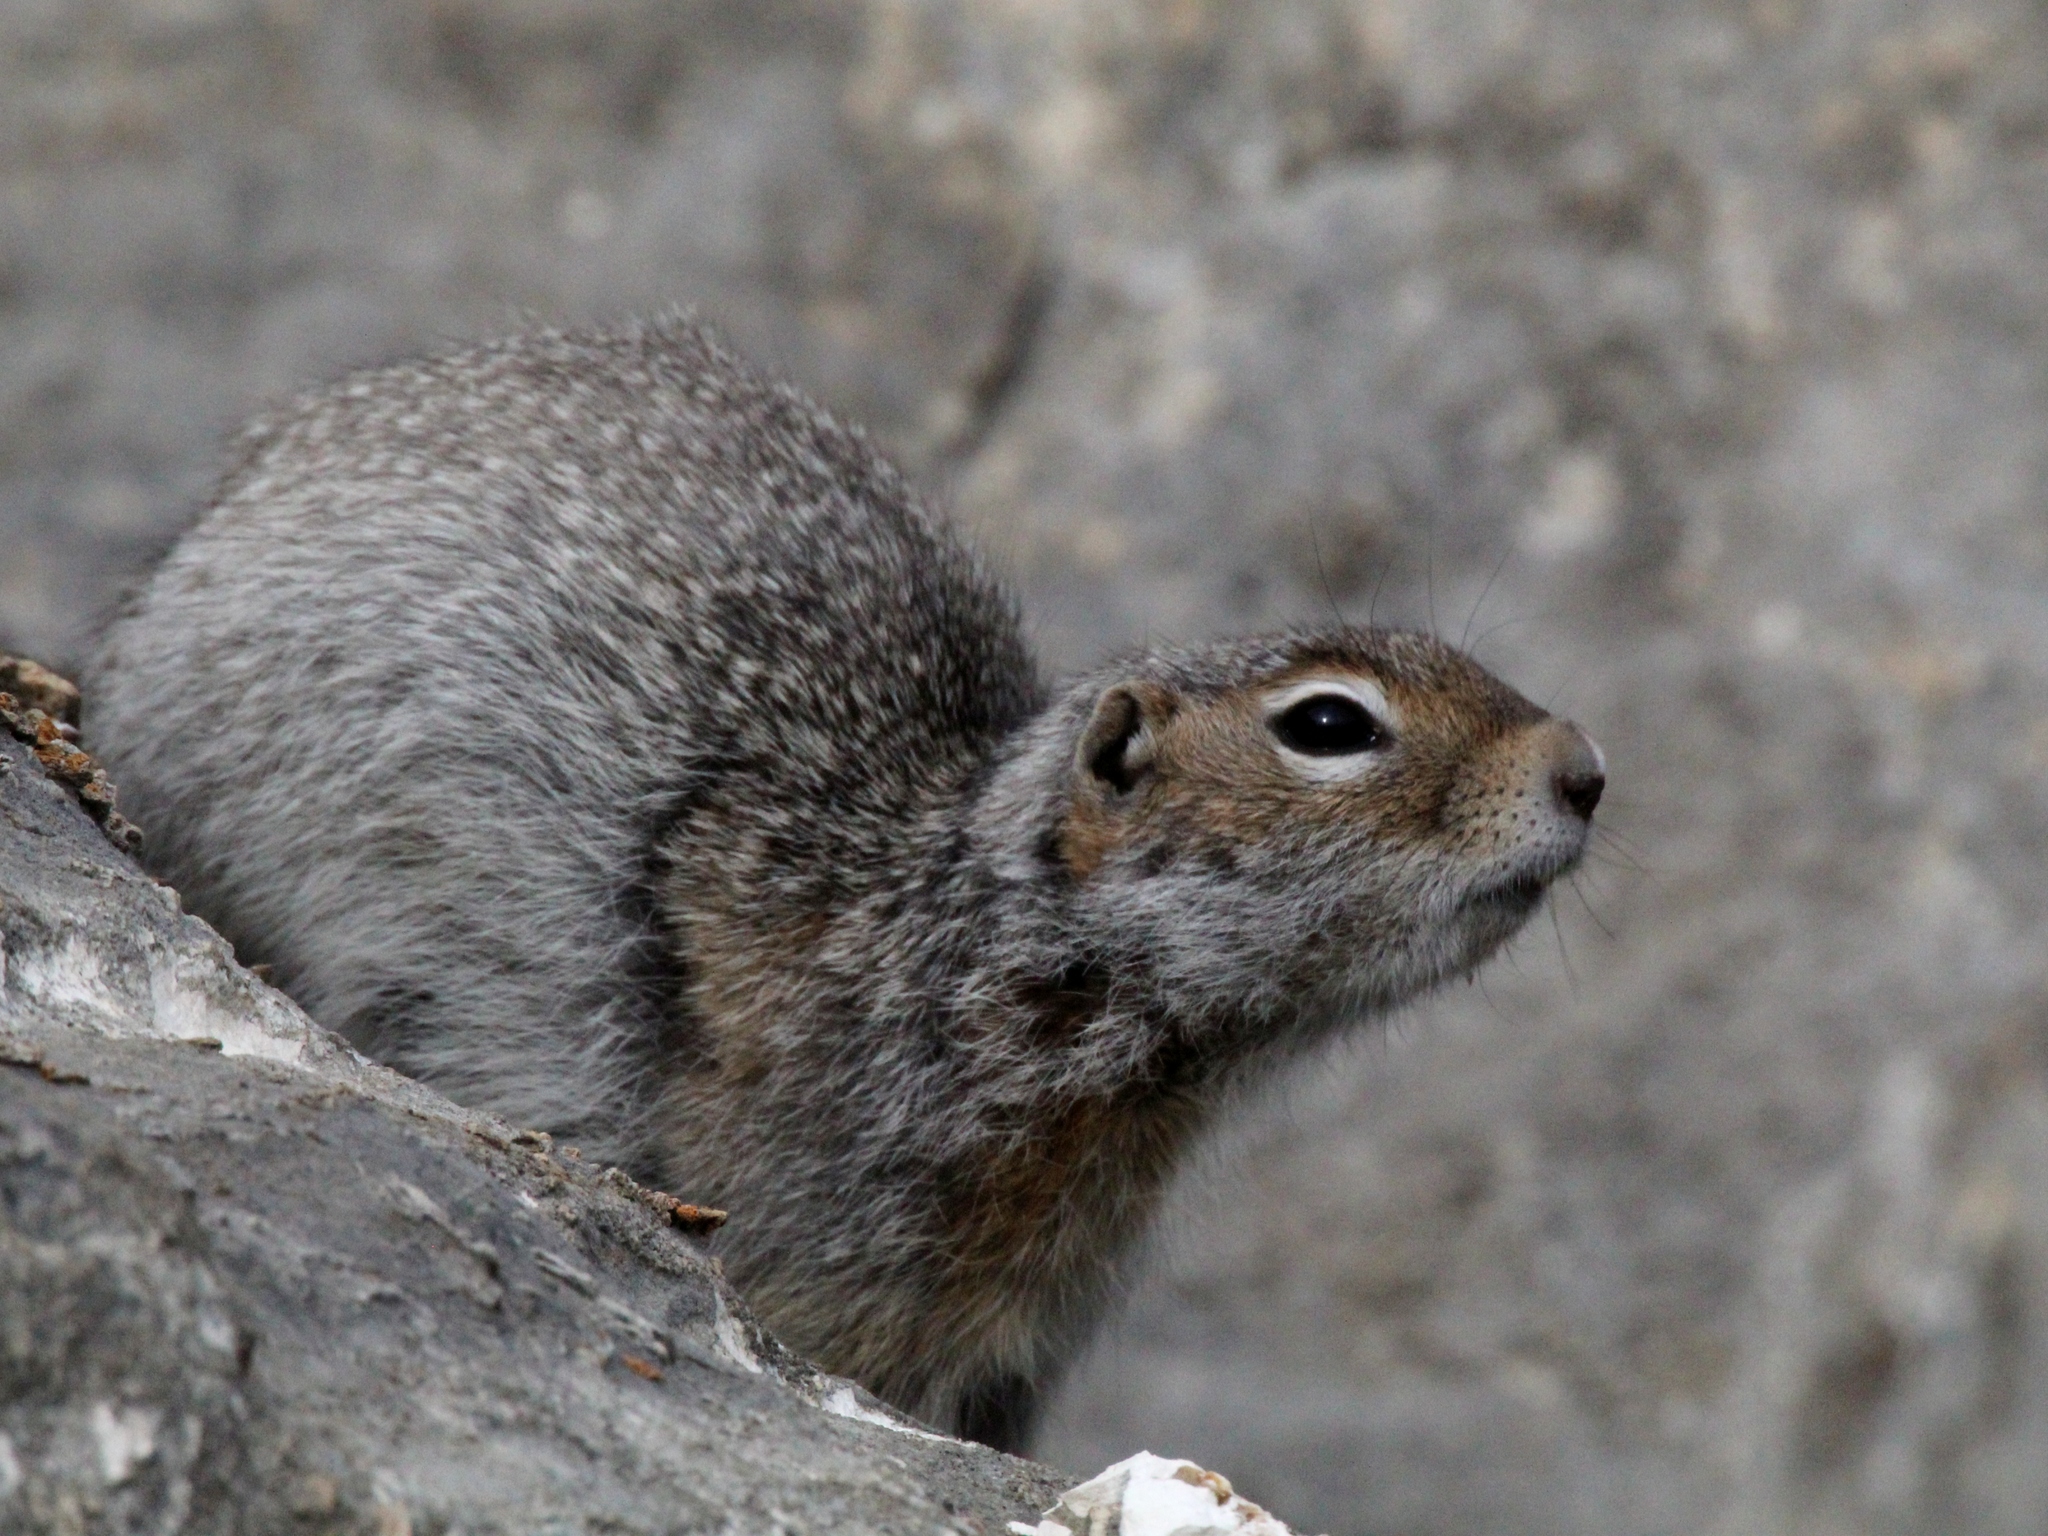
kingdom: Animalia
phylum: Chordata
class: Mammalia
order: Rodentia
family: Sciuridae
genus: Urocitellus
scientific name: Urocitellus undulatus
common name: Long-tailed ground squirrel
